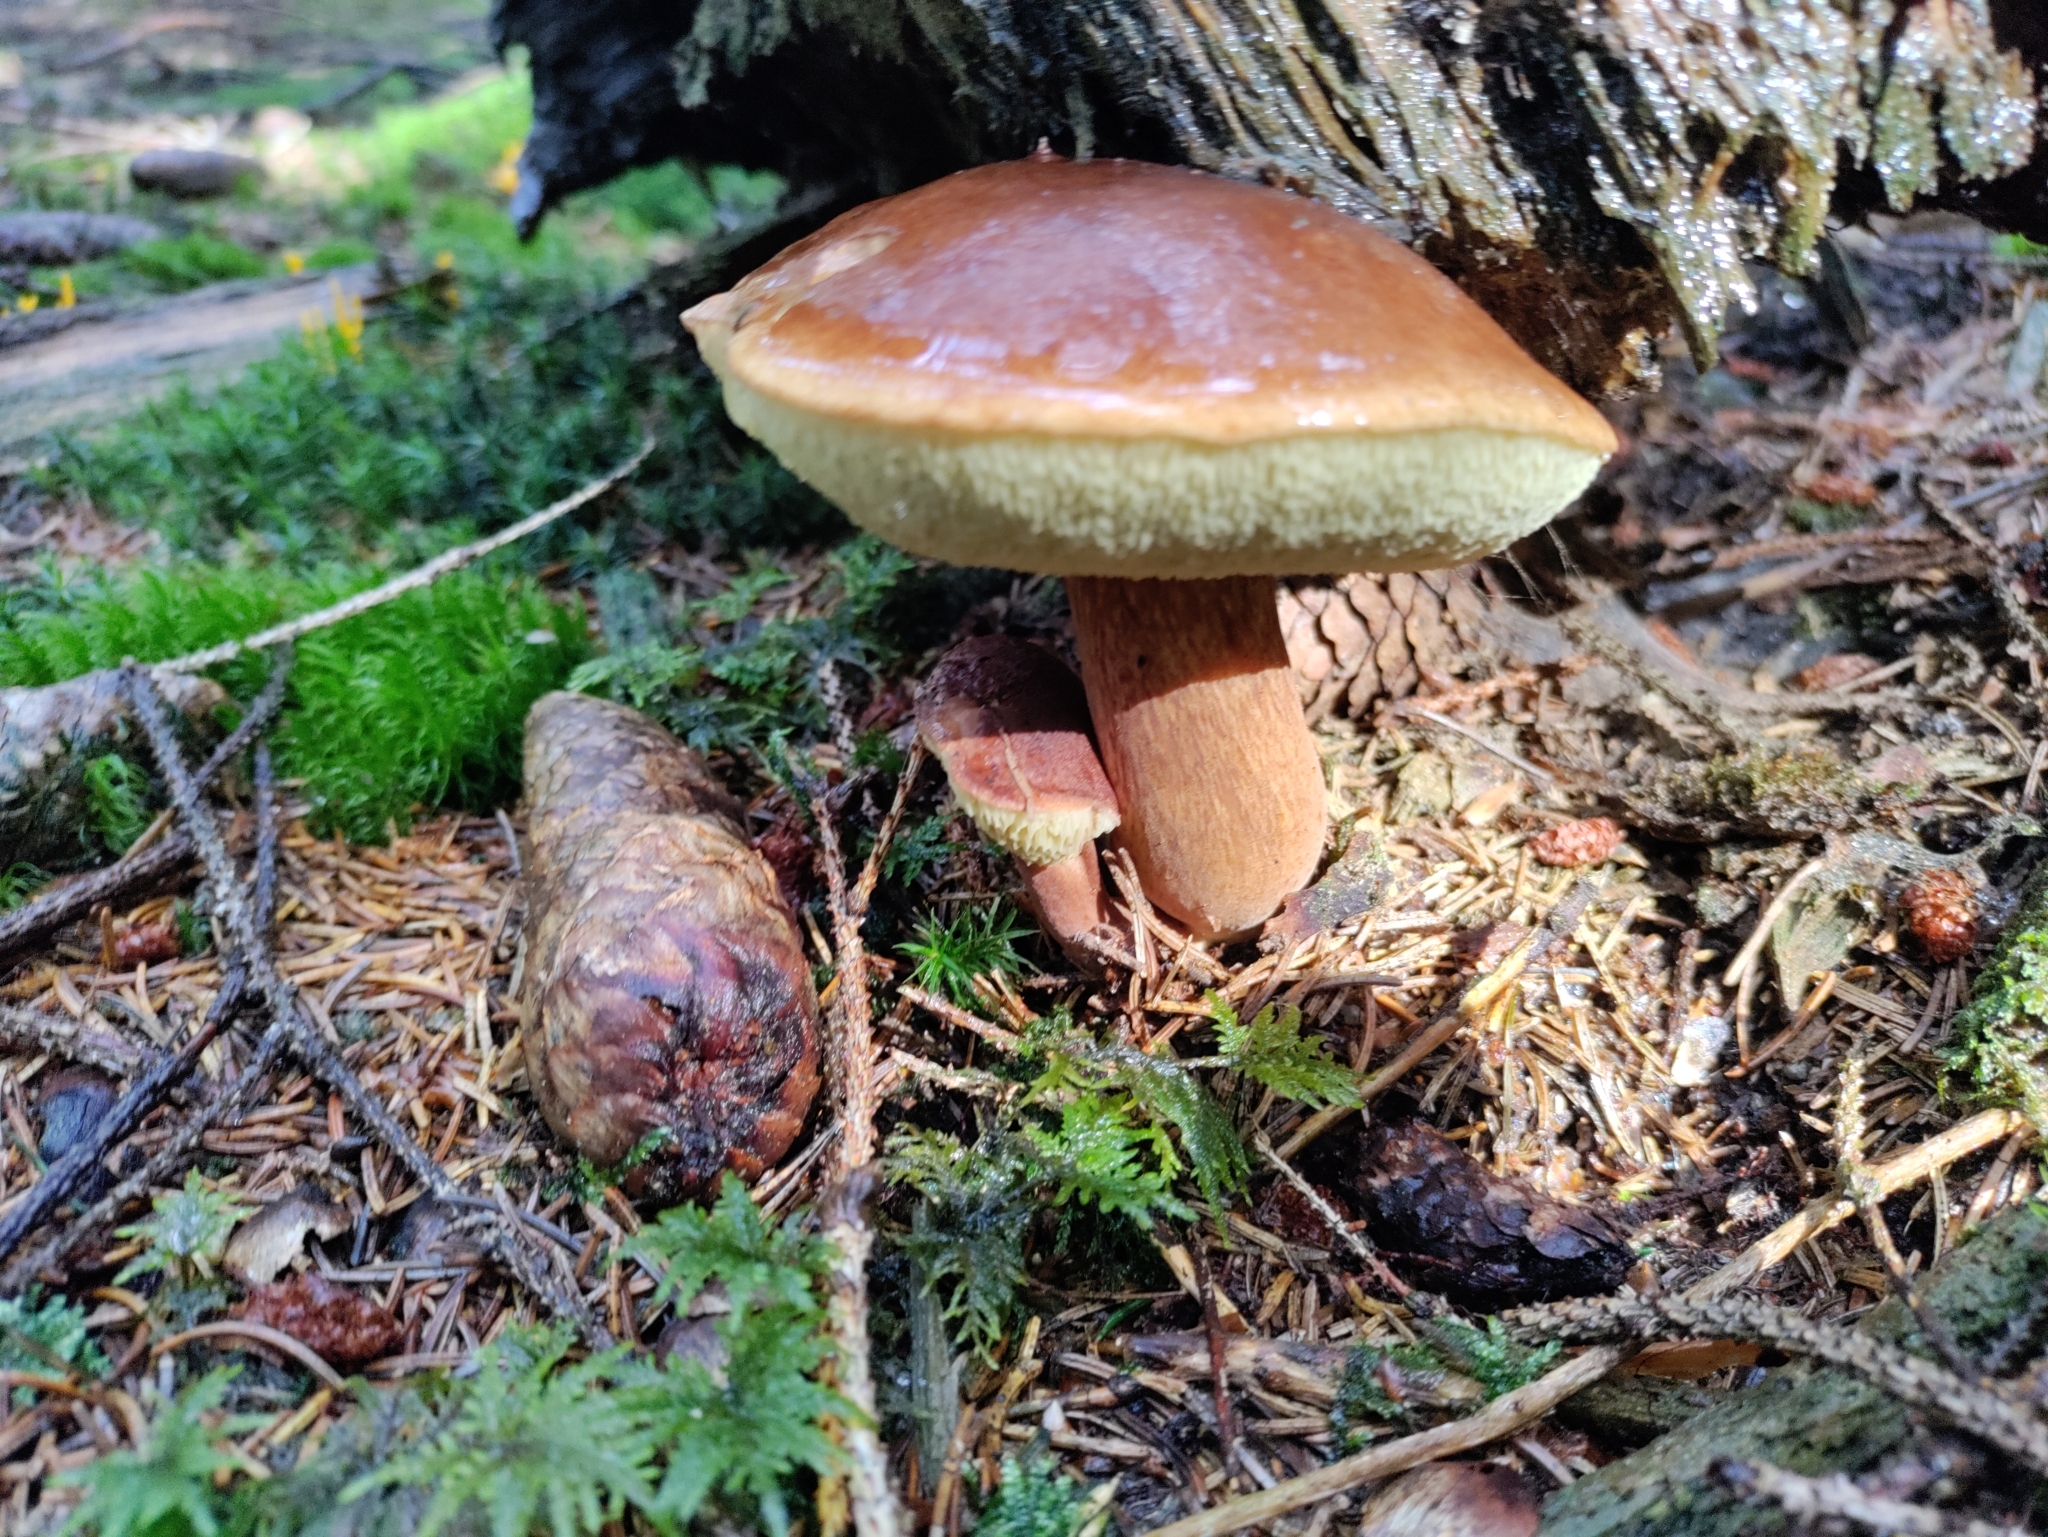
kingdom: Fungi
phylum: Basidiomycota
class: Agaricomycetes
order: Boletales
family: Boletaceae
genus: Imleria
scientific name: Imleria badia
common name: Bay bolete
